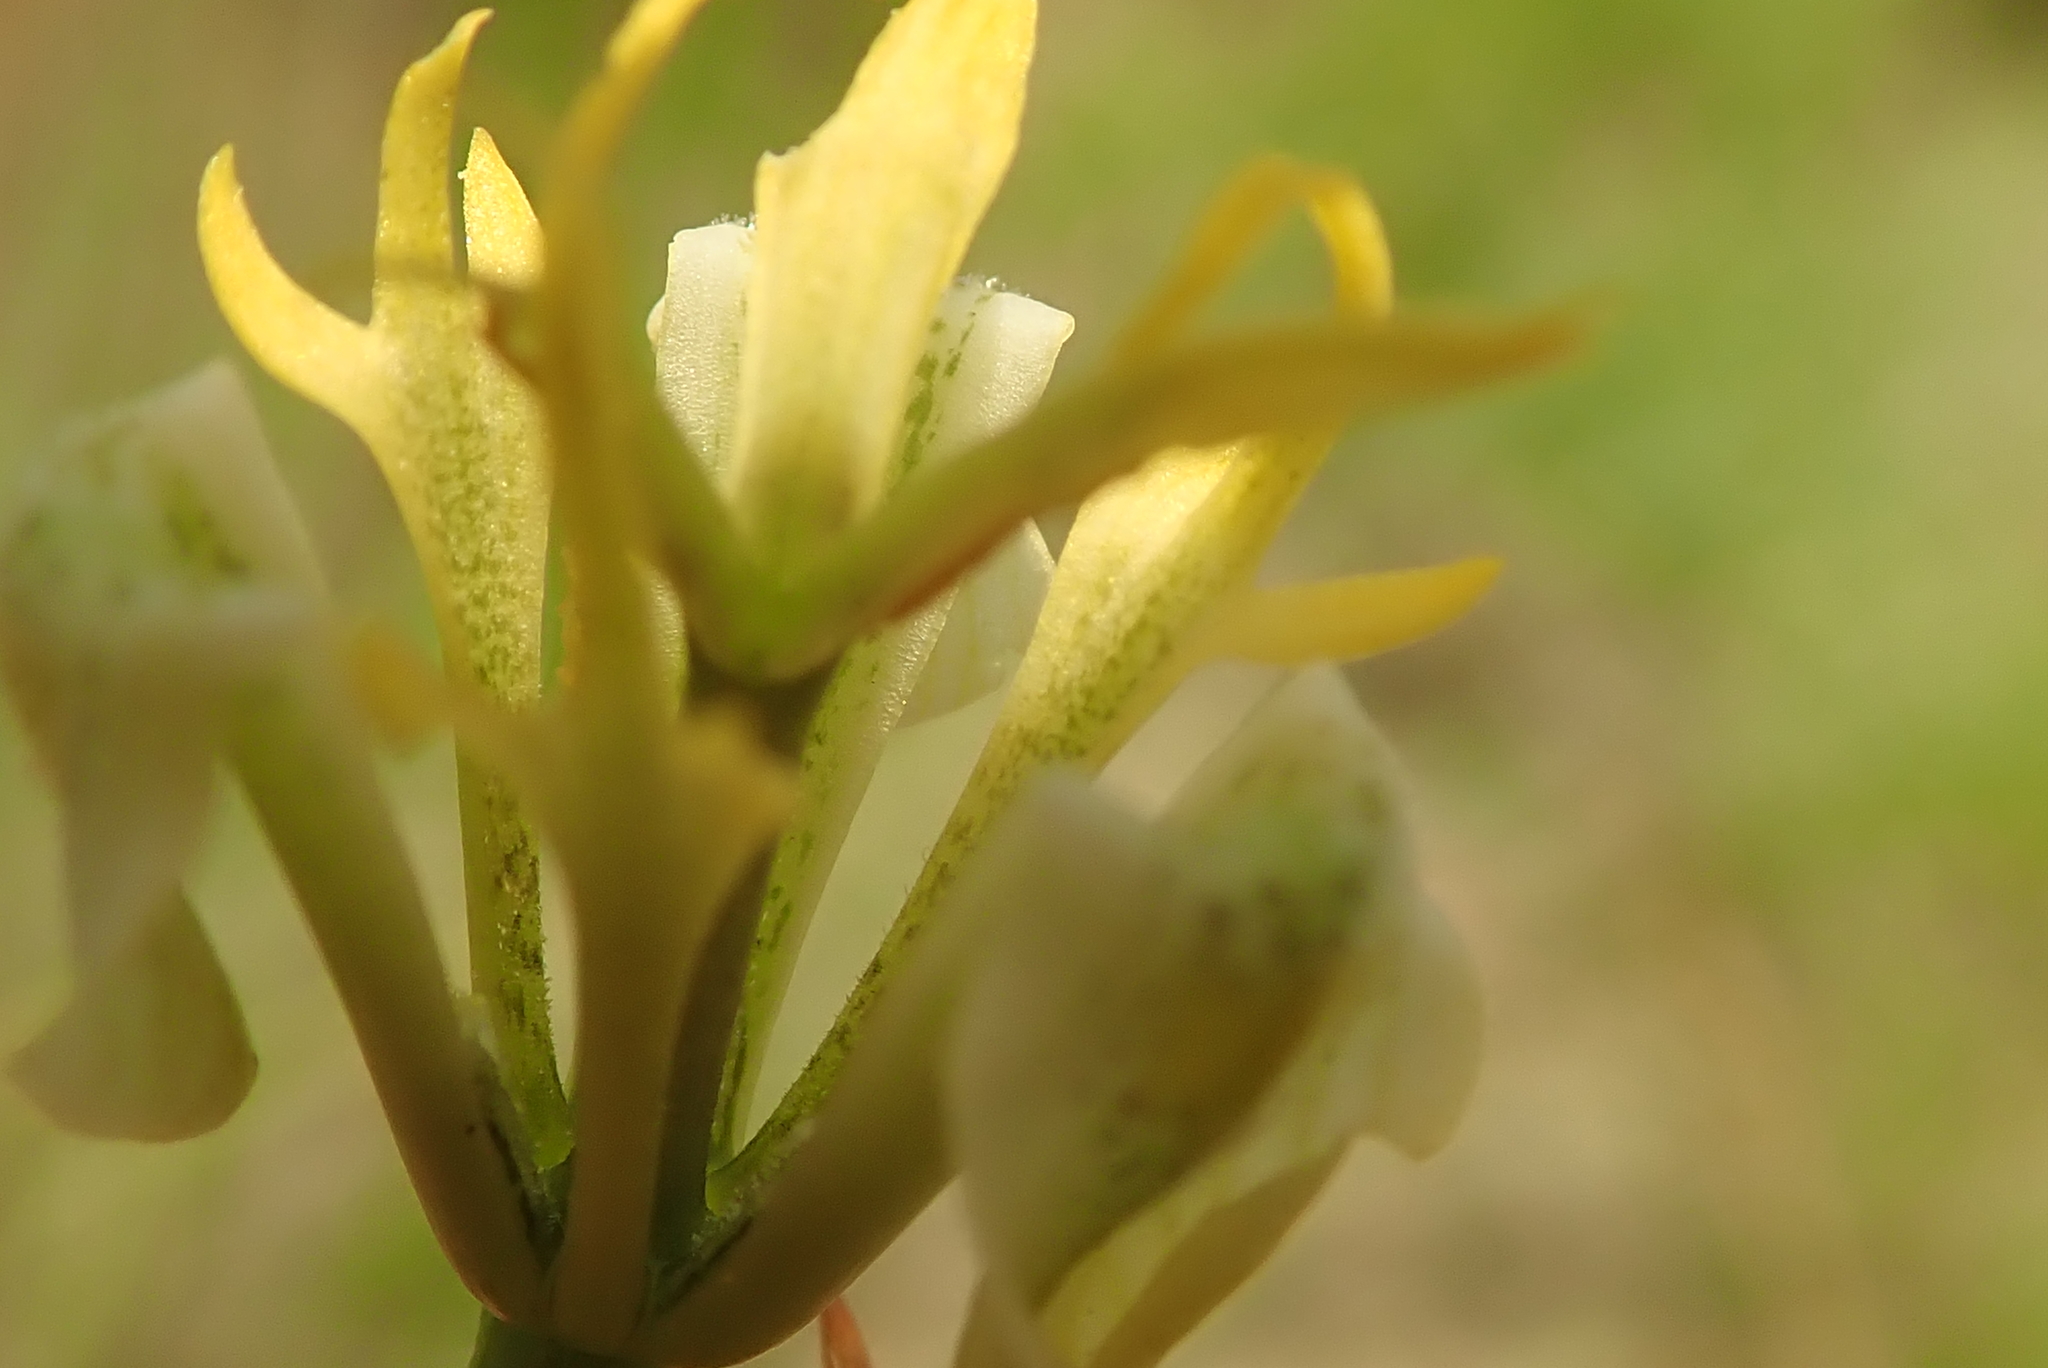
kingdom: Plantae
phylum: Tracheophyta
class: Liliopsida
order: Asparagales
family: Iridaceae
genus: Moraea
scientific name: Moraea trifida
